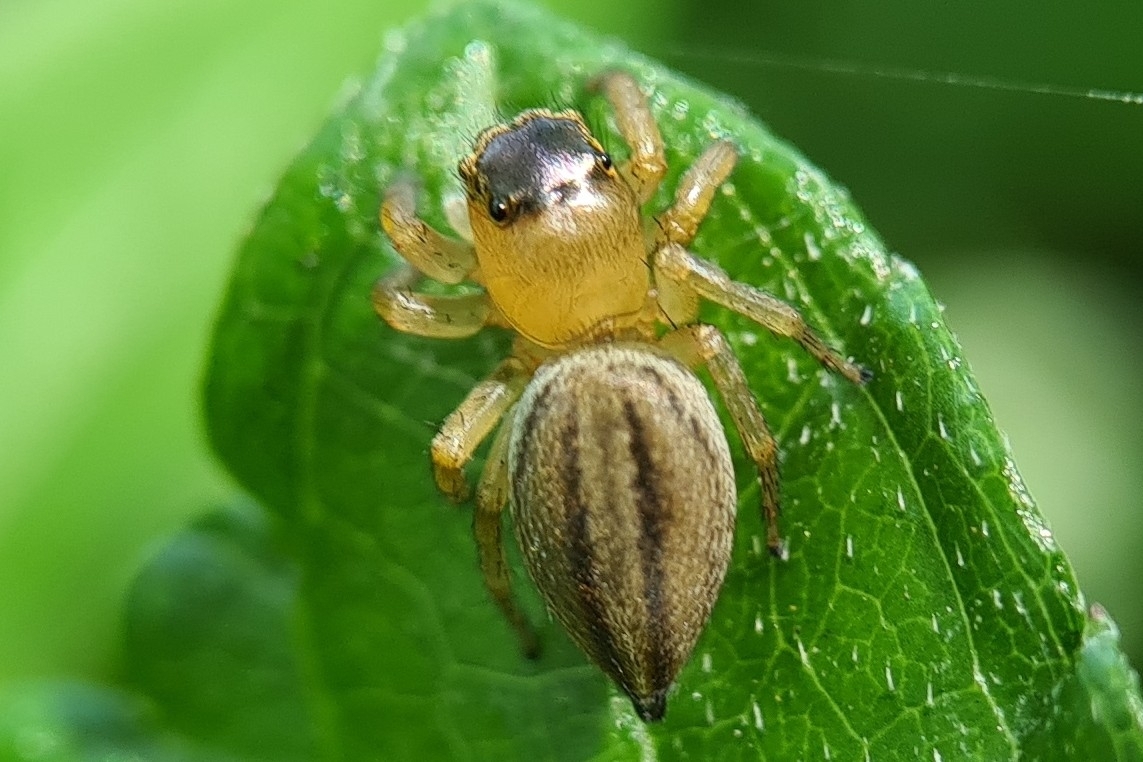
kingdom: Animalia
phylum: Arthropoda
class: Arachnida
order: Araneae
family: Salticidae
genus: Maratus
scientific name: Maratus scutulatus
